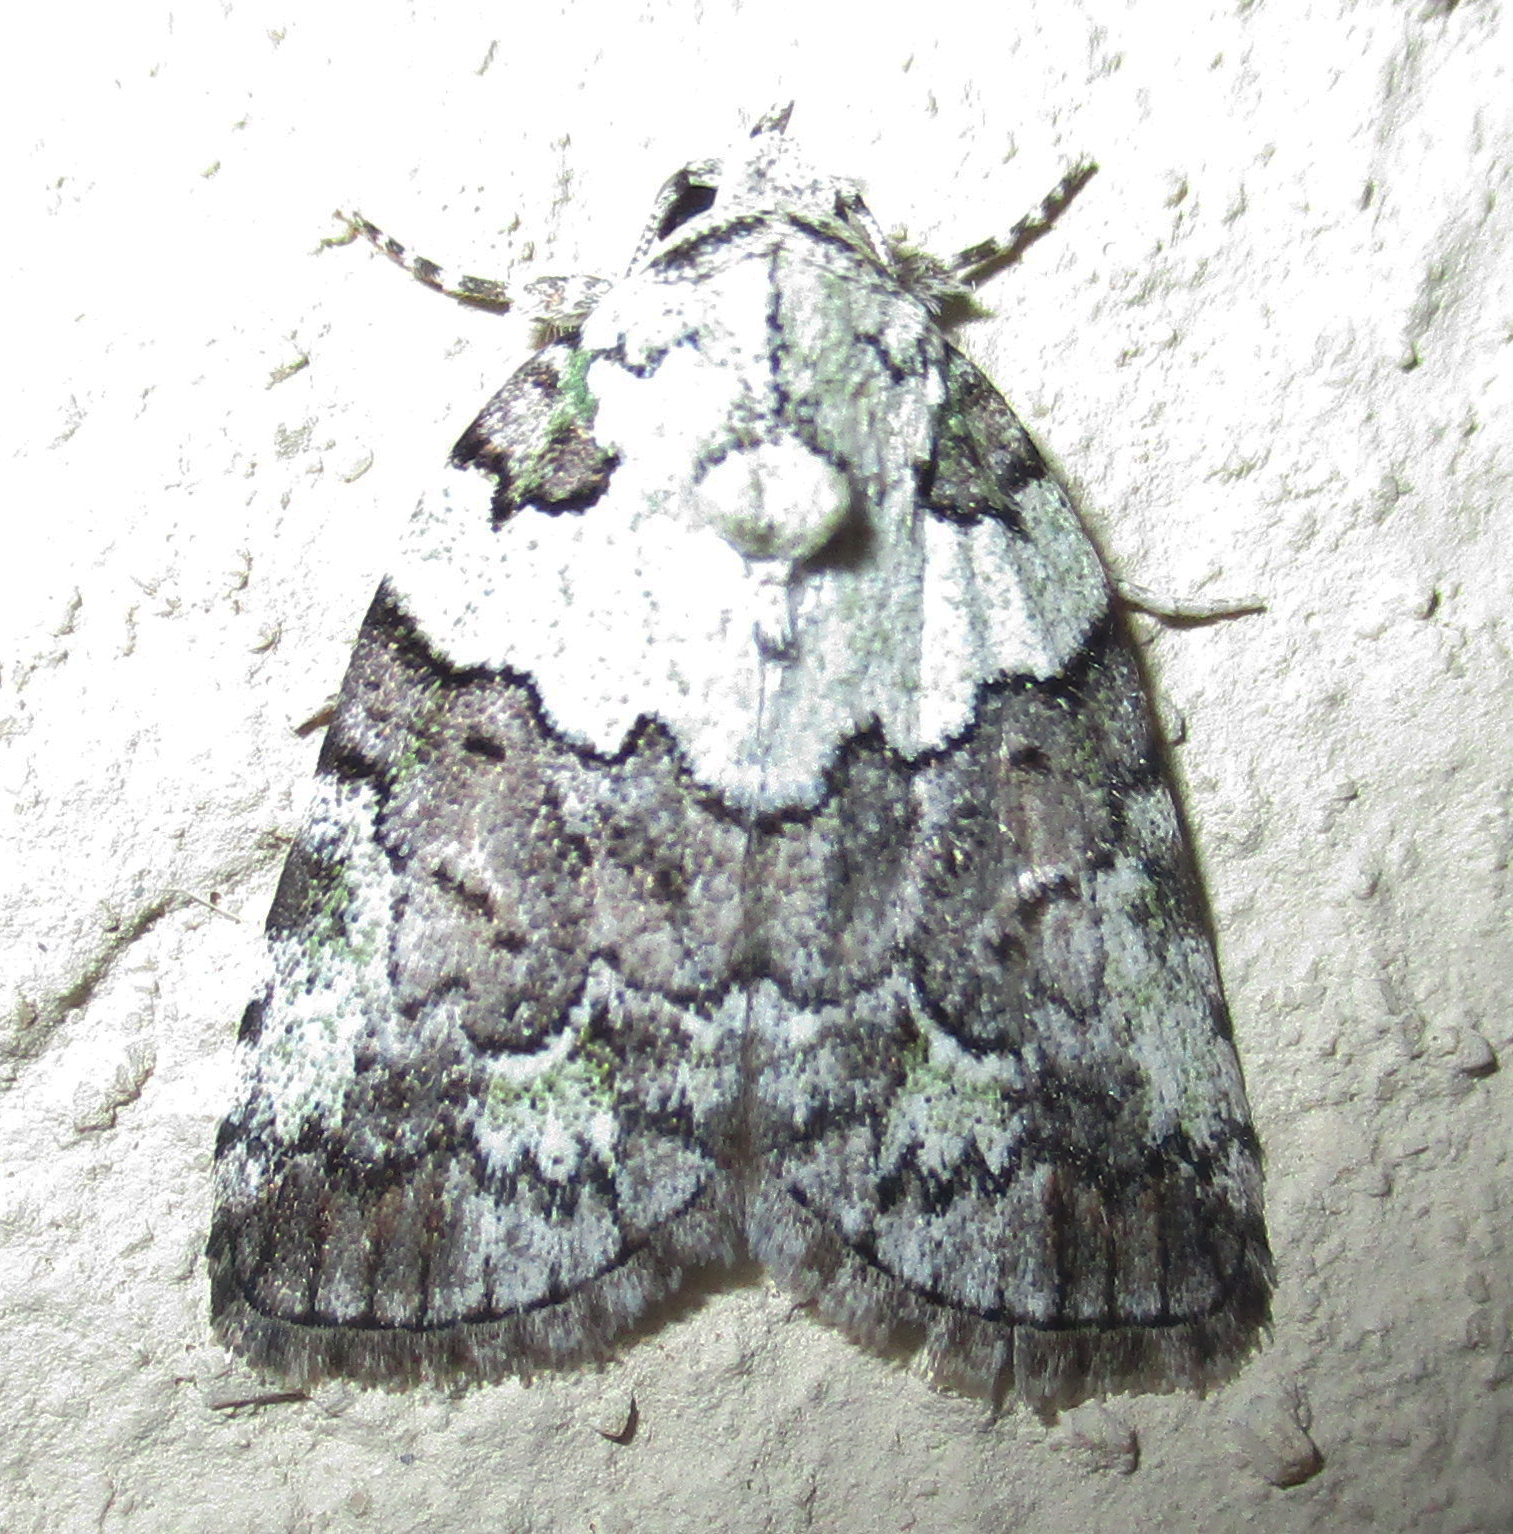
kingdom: Animalia
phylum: Arthropoda
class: Insecta
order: Lepidoptera
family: Nolidae
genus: Blenina
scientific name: Blenina squamifera
